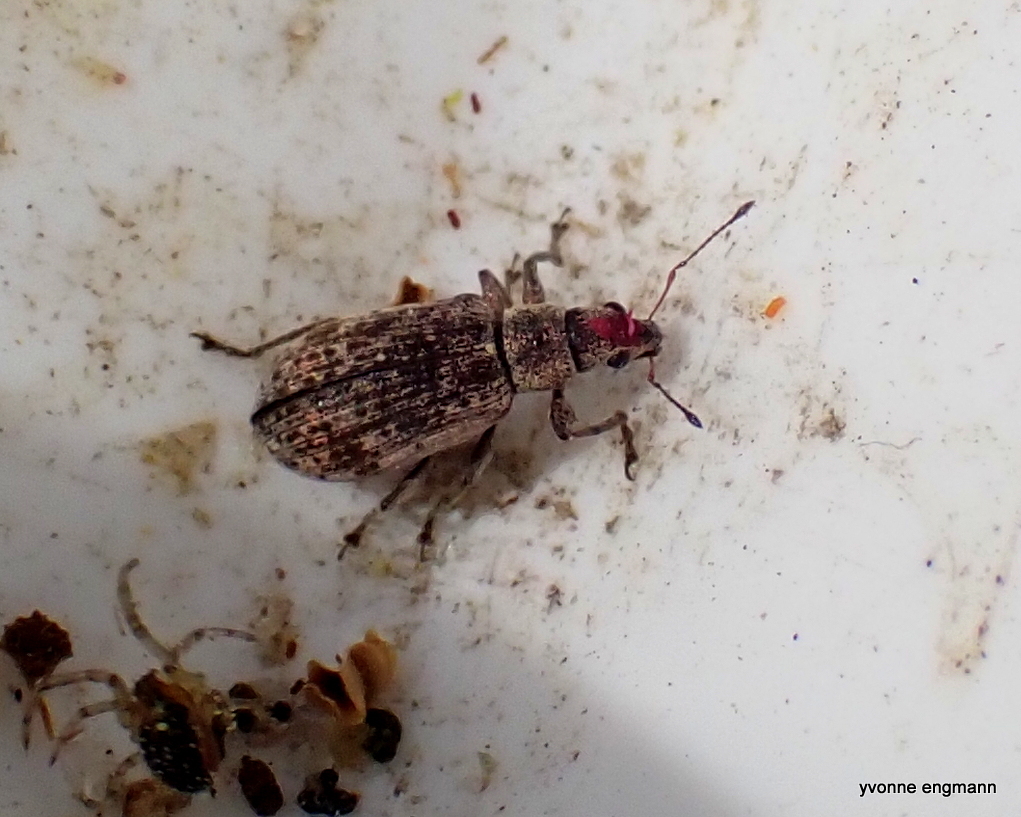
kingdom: Animalia
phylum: Arthropoda
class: Insecta
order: Coleoptera
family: Curculionidae
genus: Polydrusus
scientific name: Polydrusus cervinus
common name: Weevil
